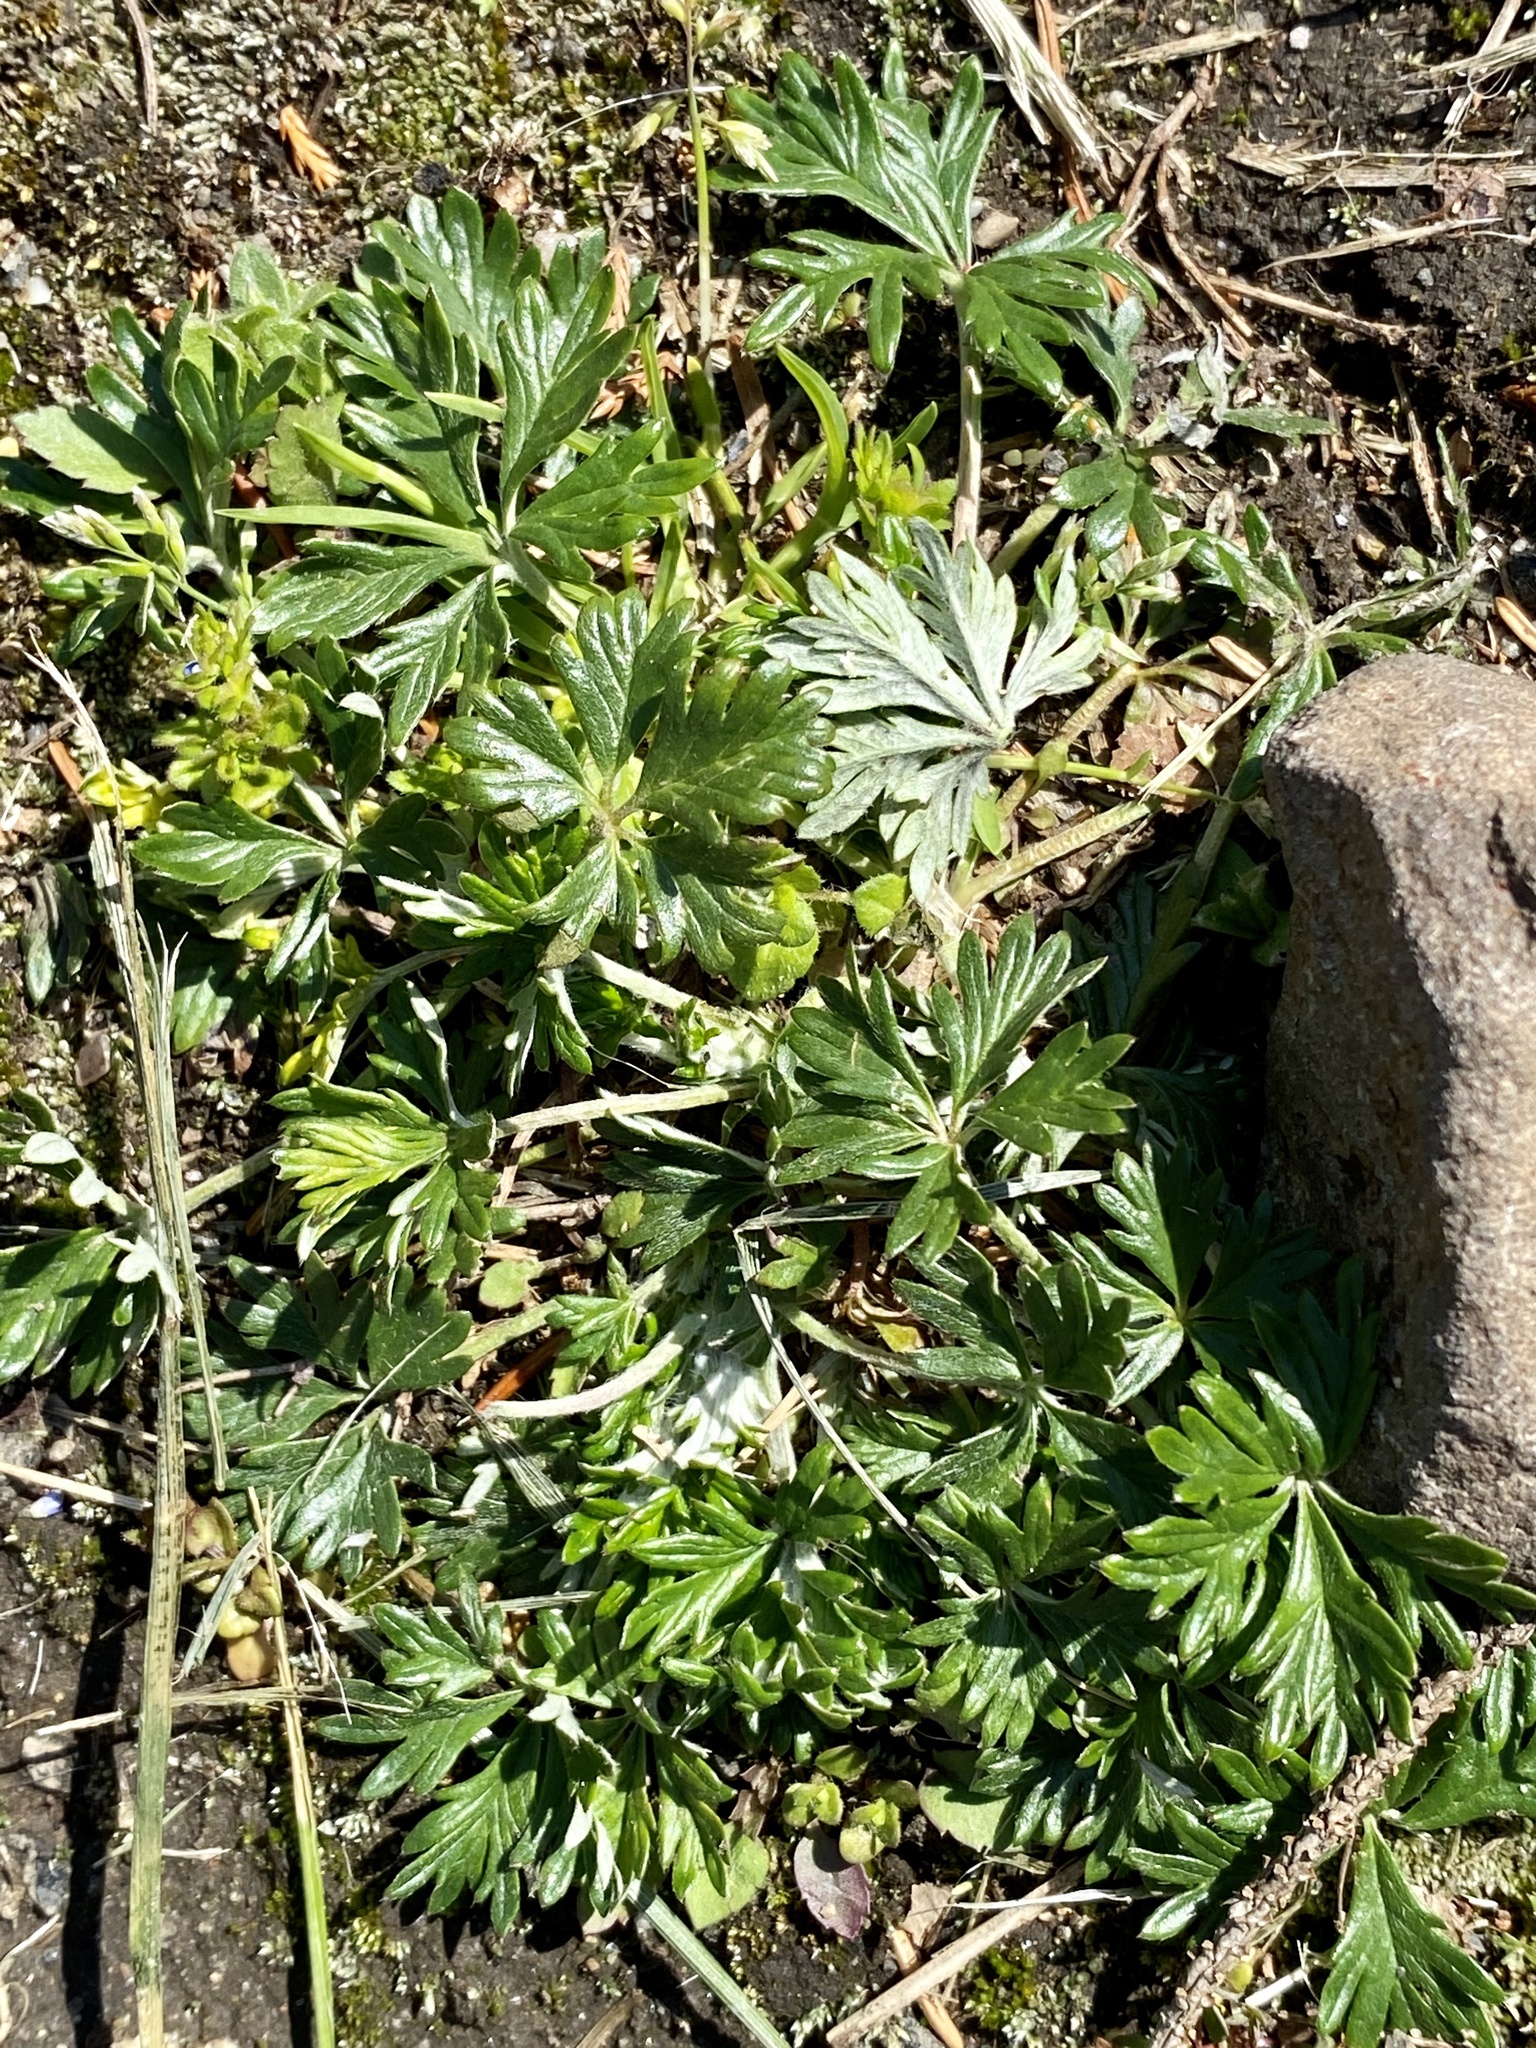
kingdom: Plantae
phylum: Tracheophyta
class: Magnoliopsida
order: Rosales
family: Rosaceae
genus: Potentilla
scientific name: Potentilla argentea
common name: Hoary cinquefoil
